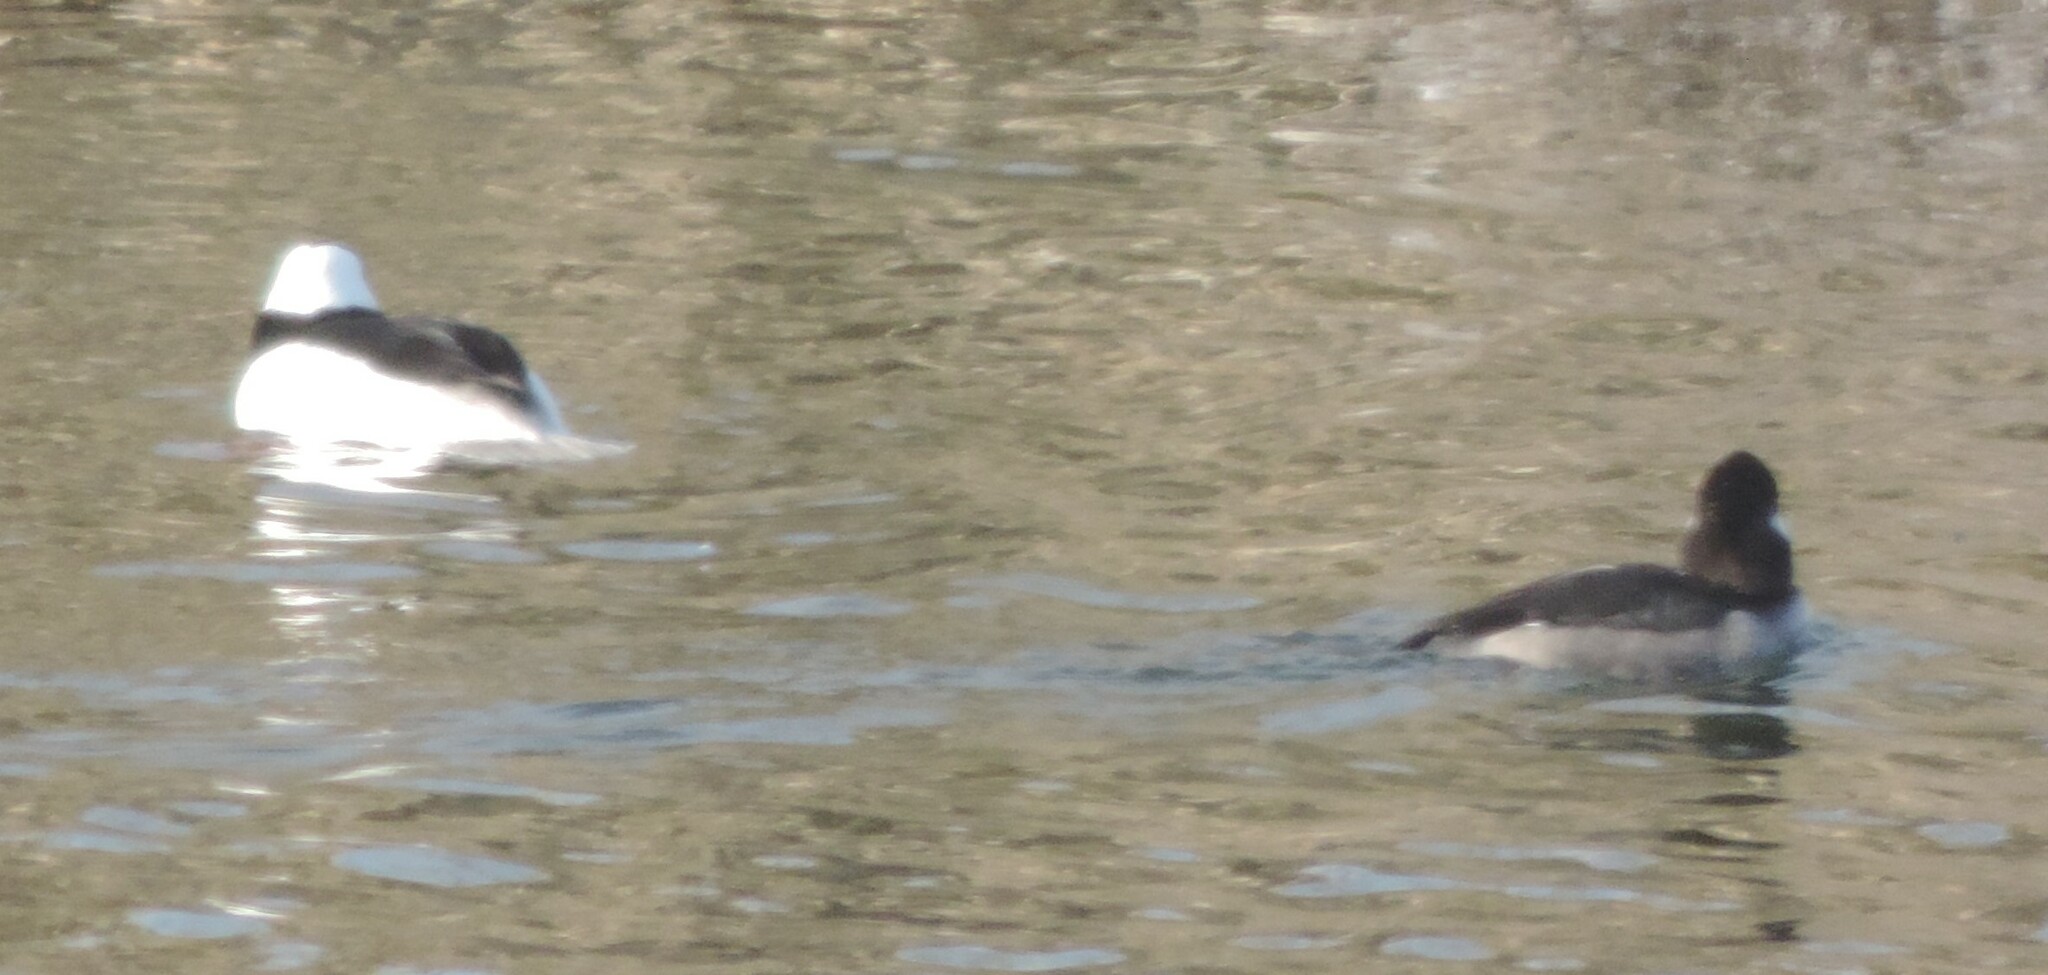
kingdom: Animalia
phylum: Chordata
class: Aves
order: Anseriformes
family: Anatidae
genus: Bucephala
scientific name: Bucephala albeola
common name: Bufflehead
